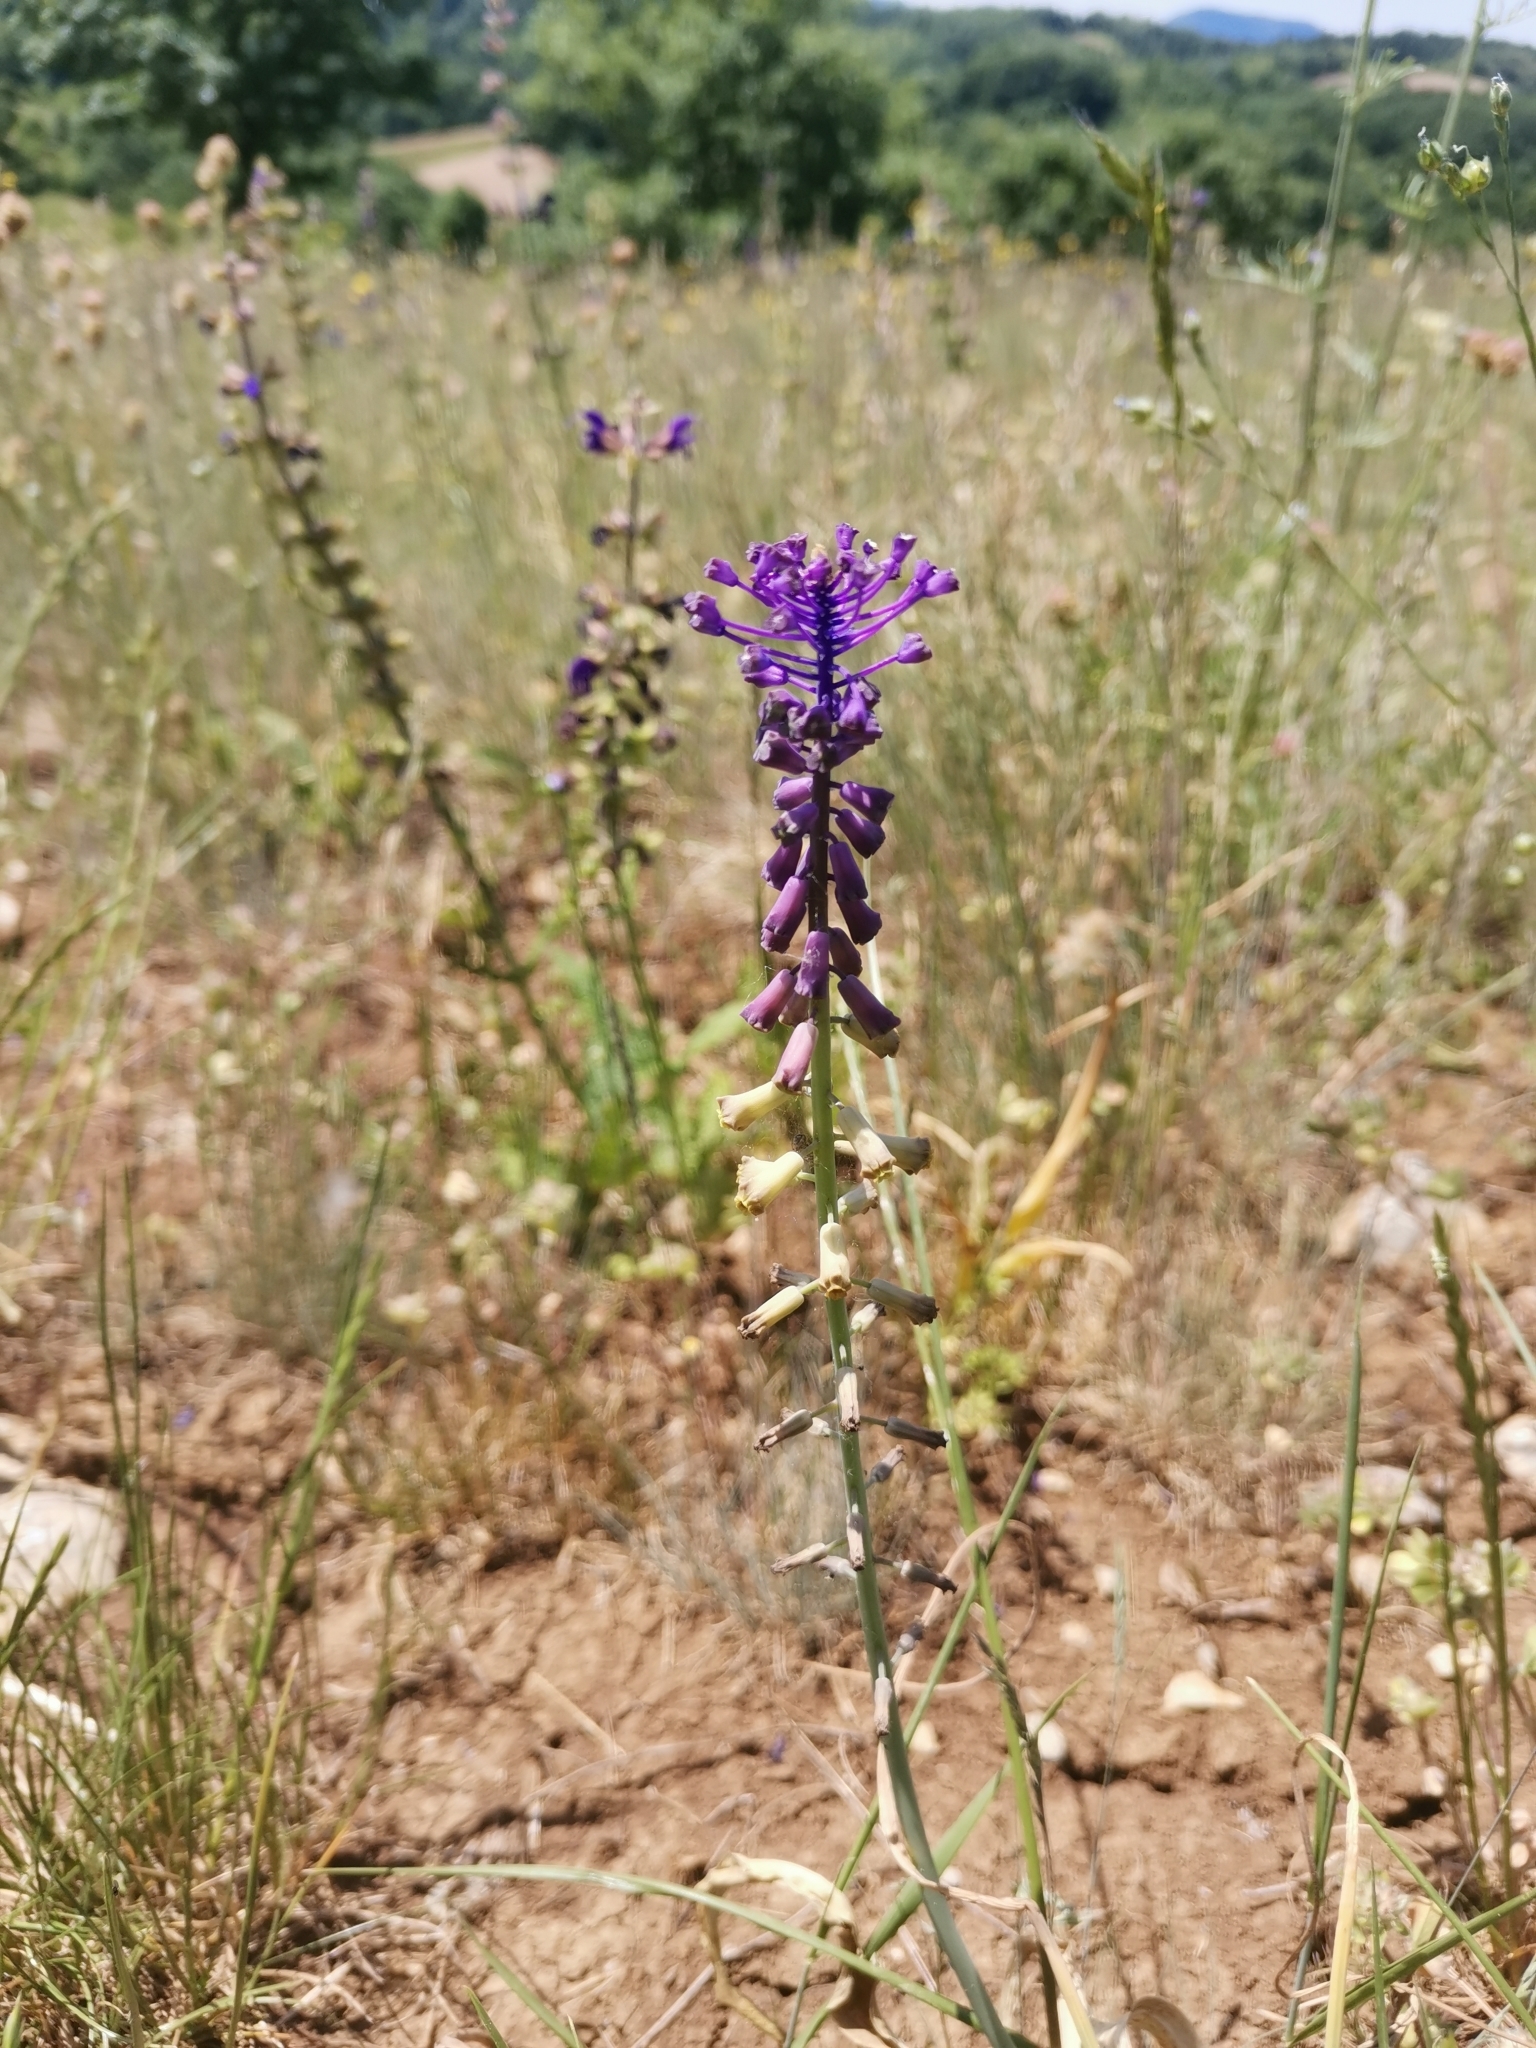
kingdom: Plantae
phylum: Tracheophyta
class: Liliopsida
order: Liliales
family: Liliaceae
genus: Fritillaria
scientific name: Fritillaria meleagris
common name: Fritillary
